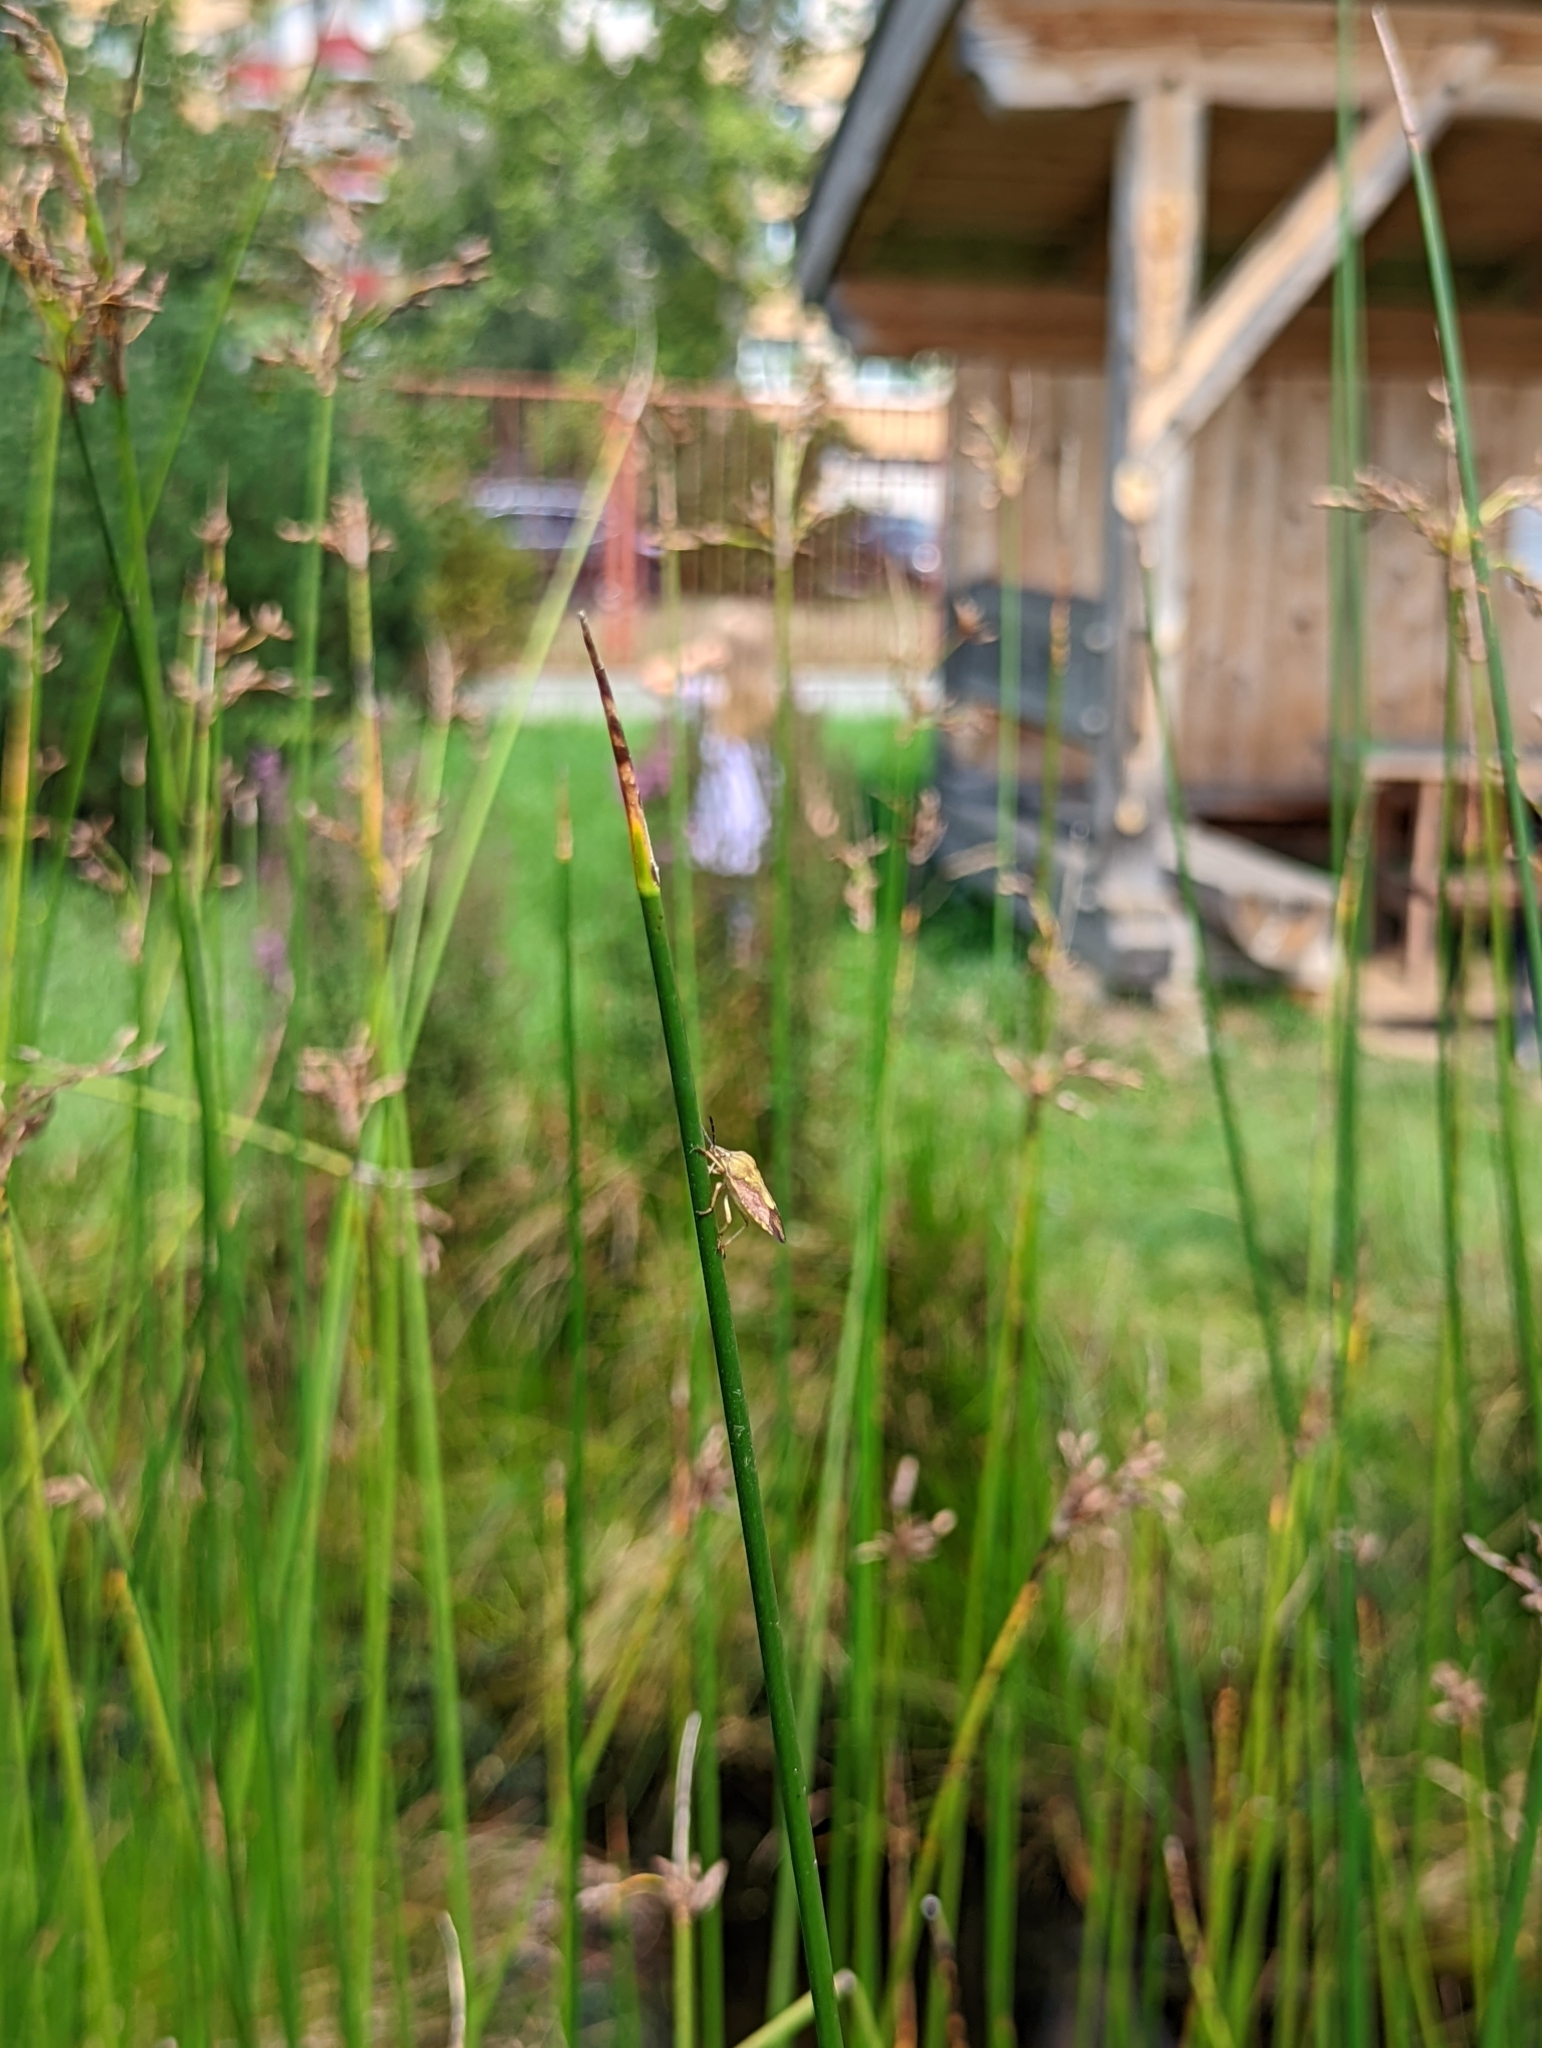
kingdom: Animalia
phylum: Arthropoda
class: Insecta
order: Hemiptera
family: Pentatomidae
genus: Carpocoris
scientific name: Carpocoris purpureipennis
